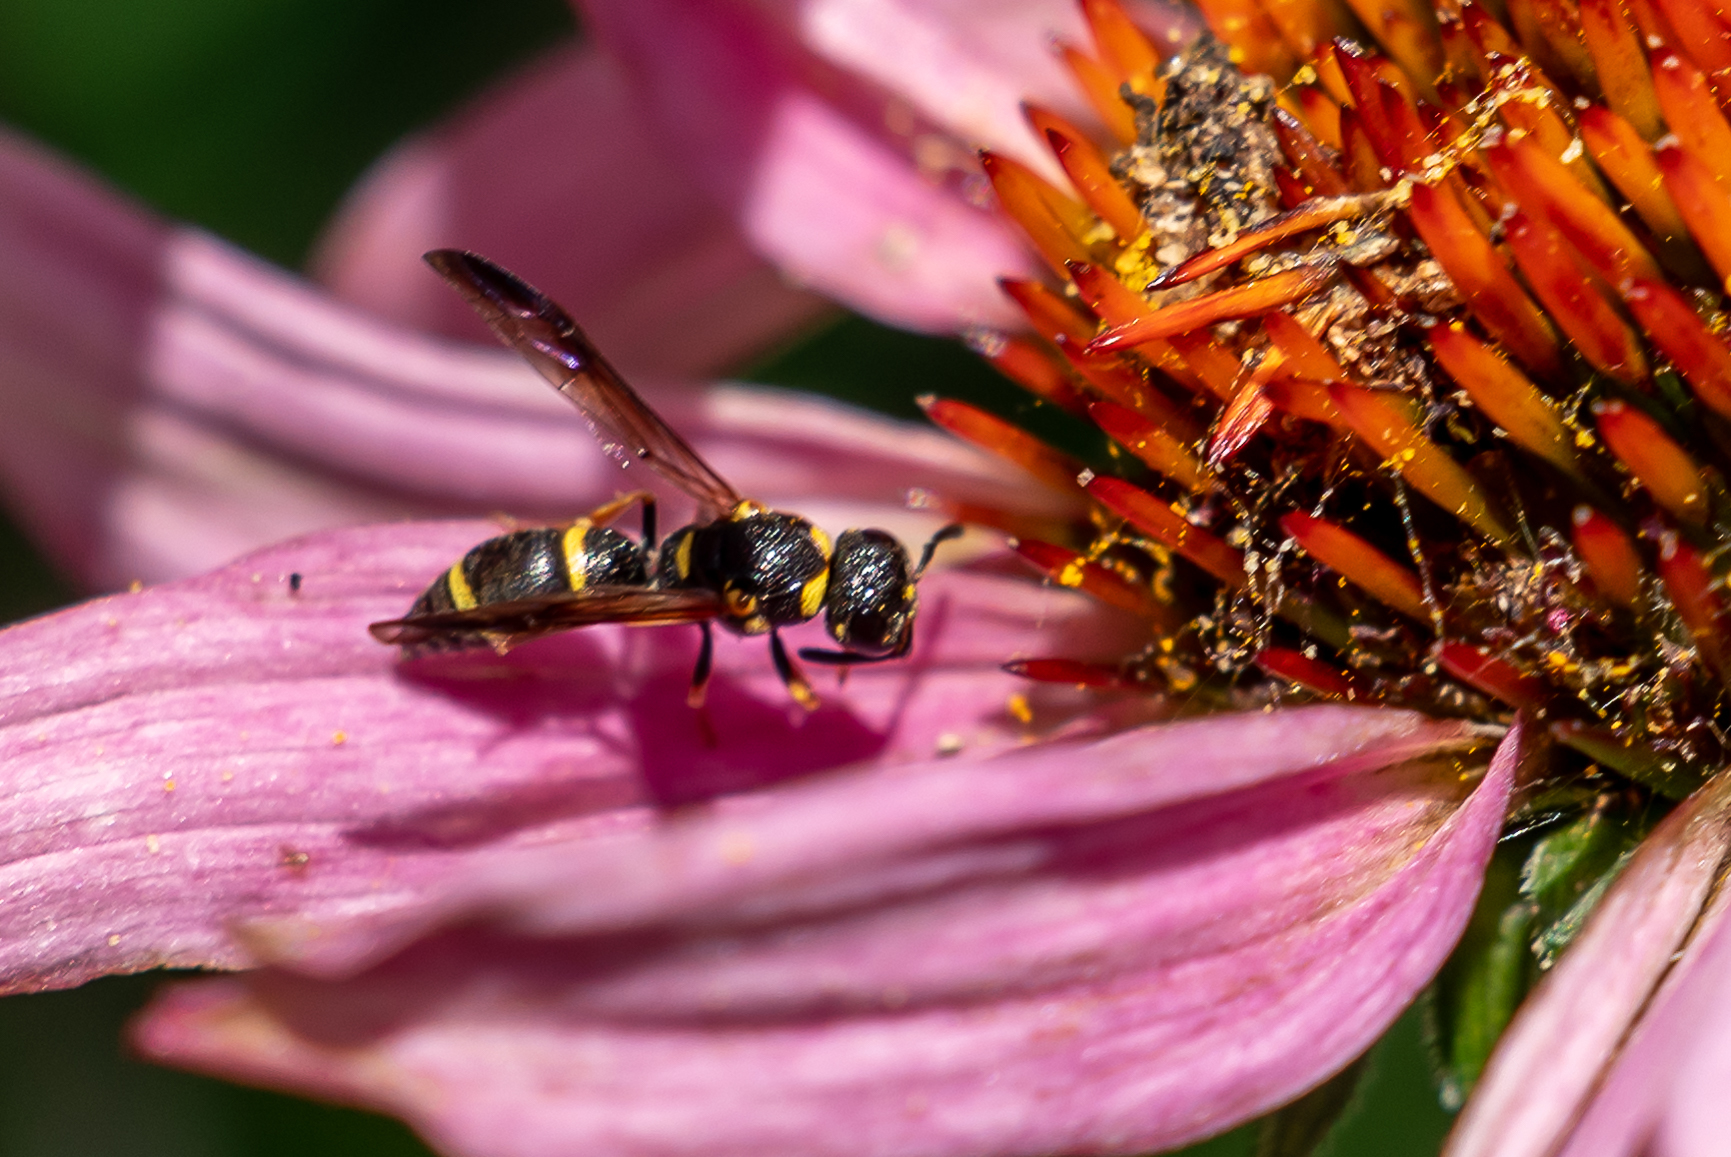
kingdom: Animalia
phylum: Arthropoda
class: Insecta
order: Hymenoptera
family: Eumenidae
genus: Parancistrocerus
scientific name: Parancistrocerus perennis
